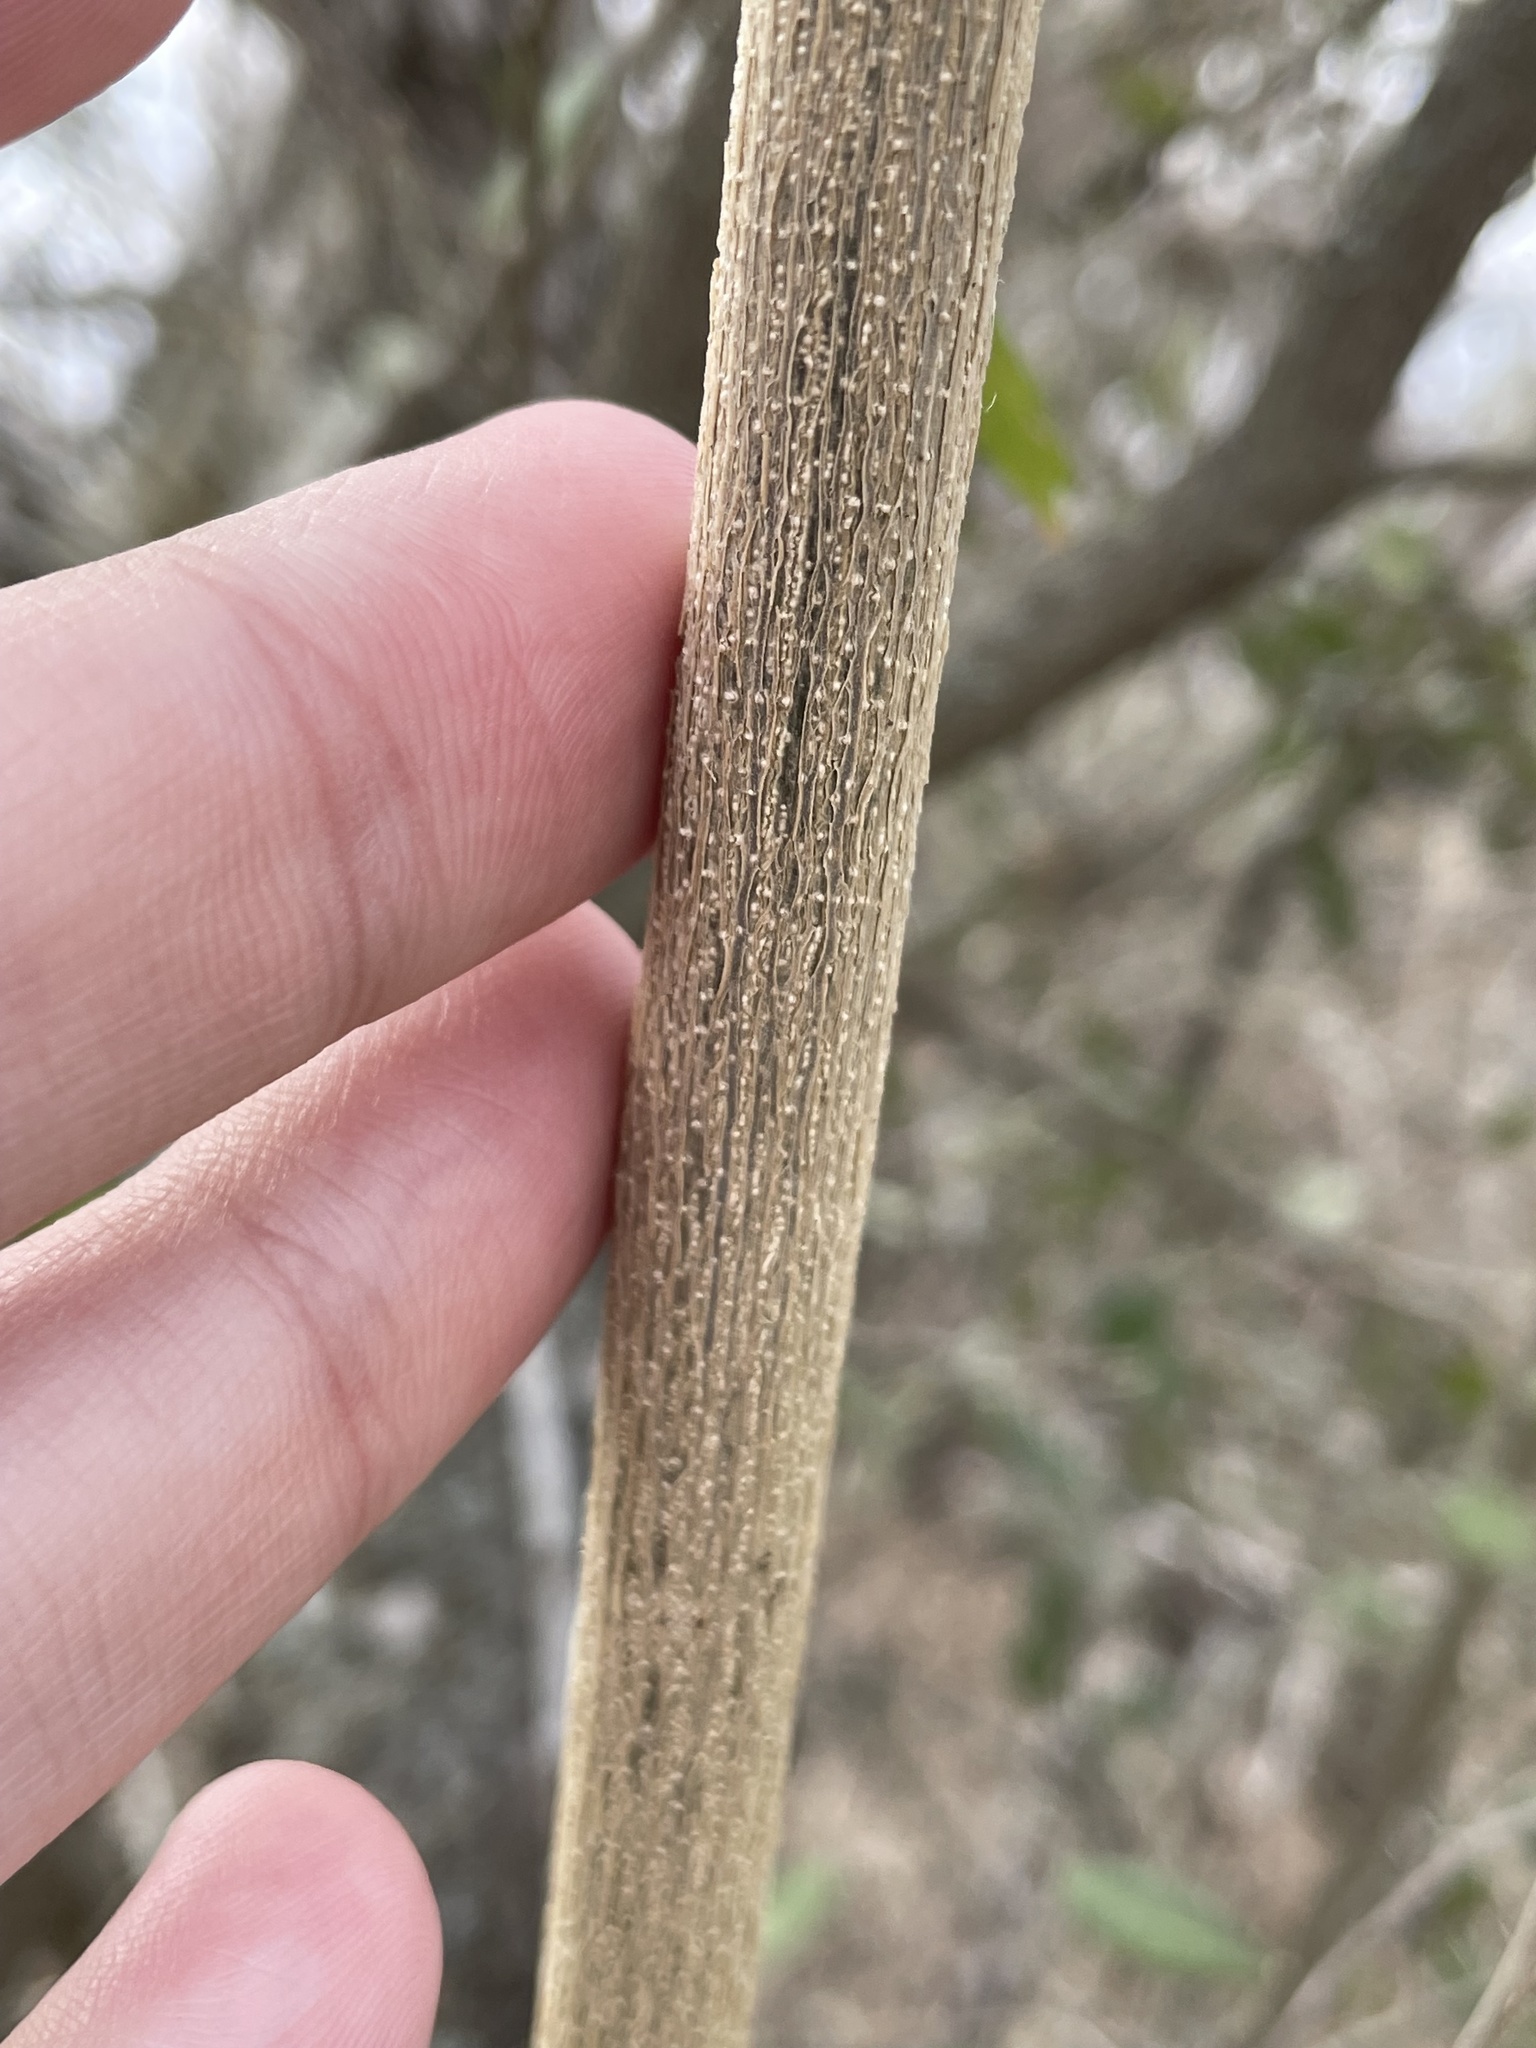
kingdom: Plantae
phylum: Tracheophyta
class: Magnoliopsida
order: Rosales
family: Cannabaceae
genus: Celtis
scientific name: Celtis pallida
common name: Desert hackberry
